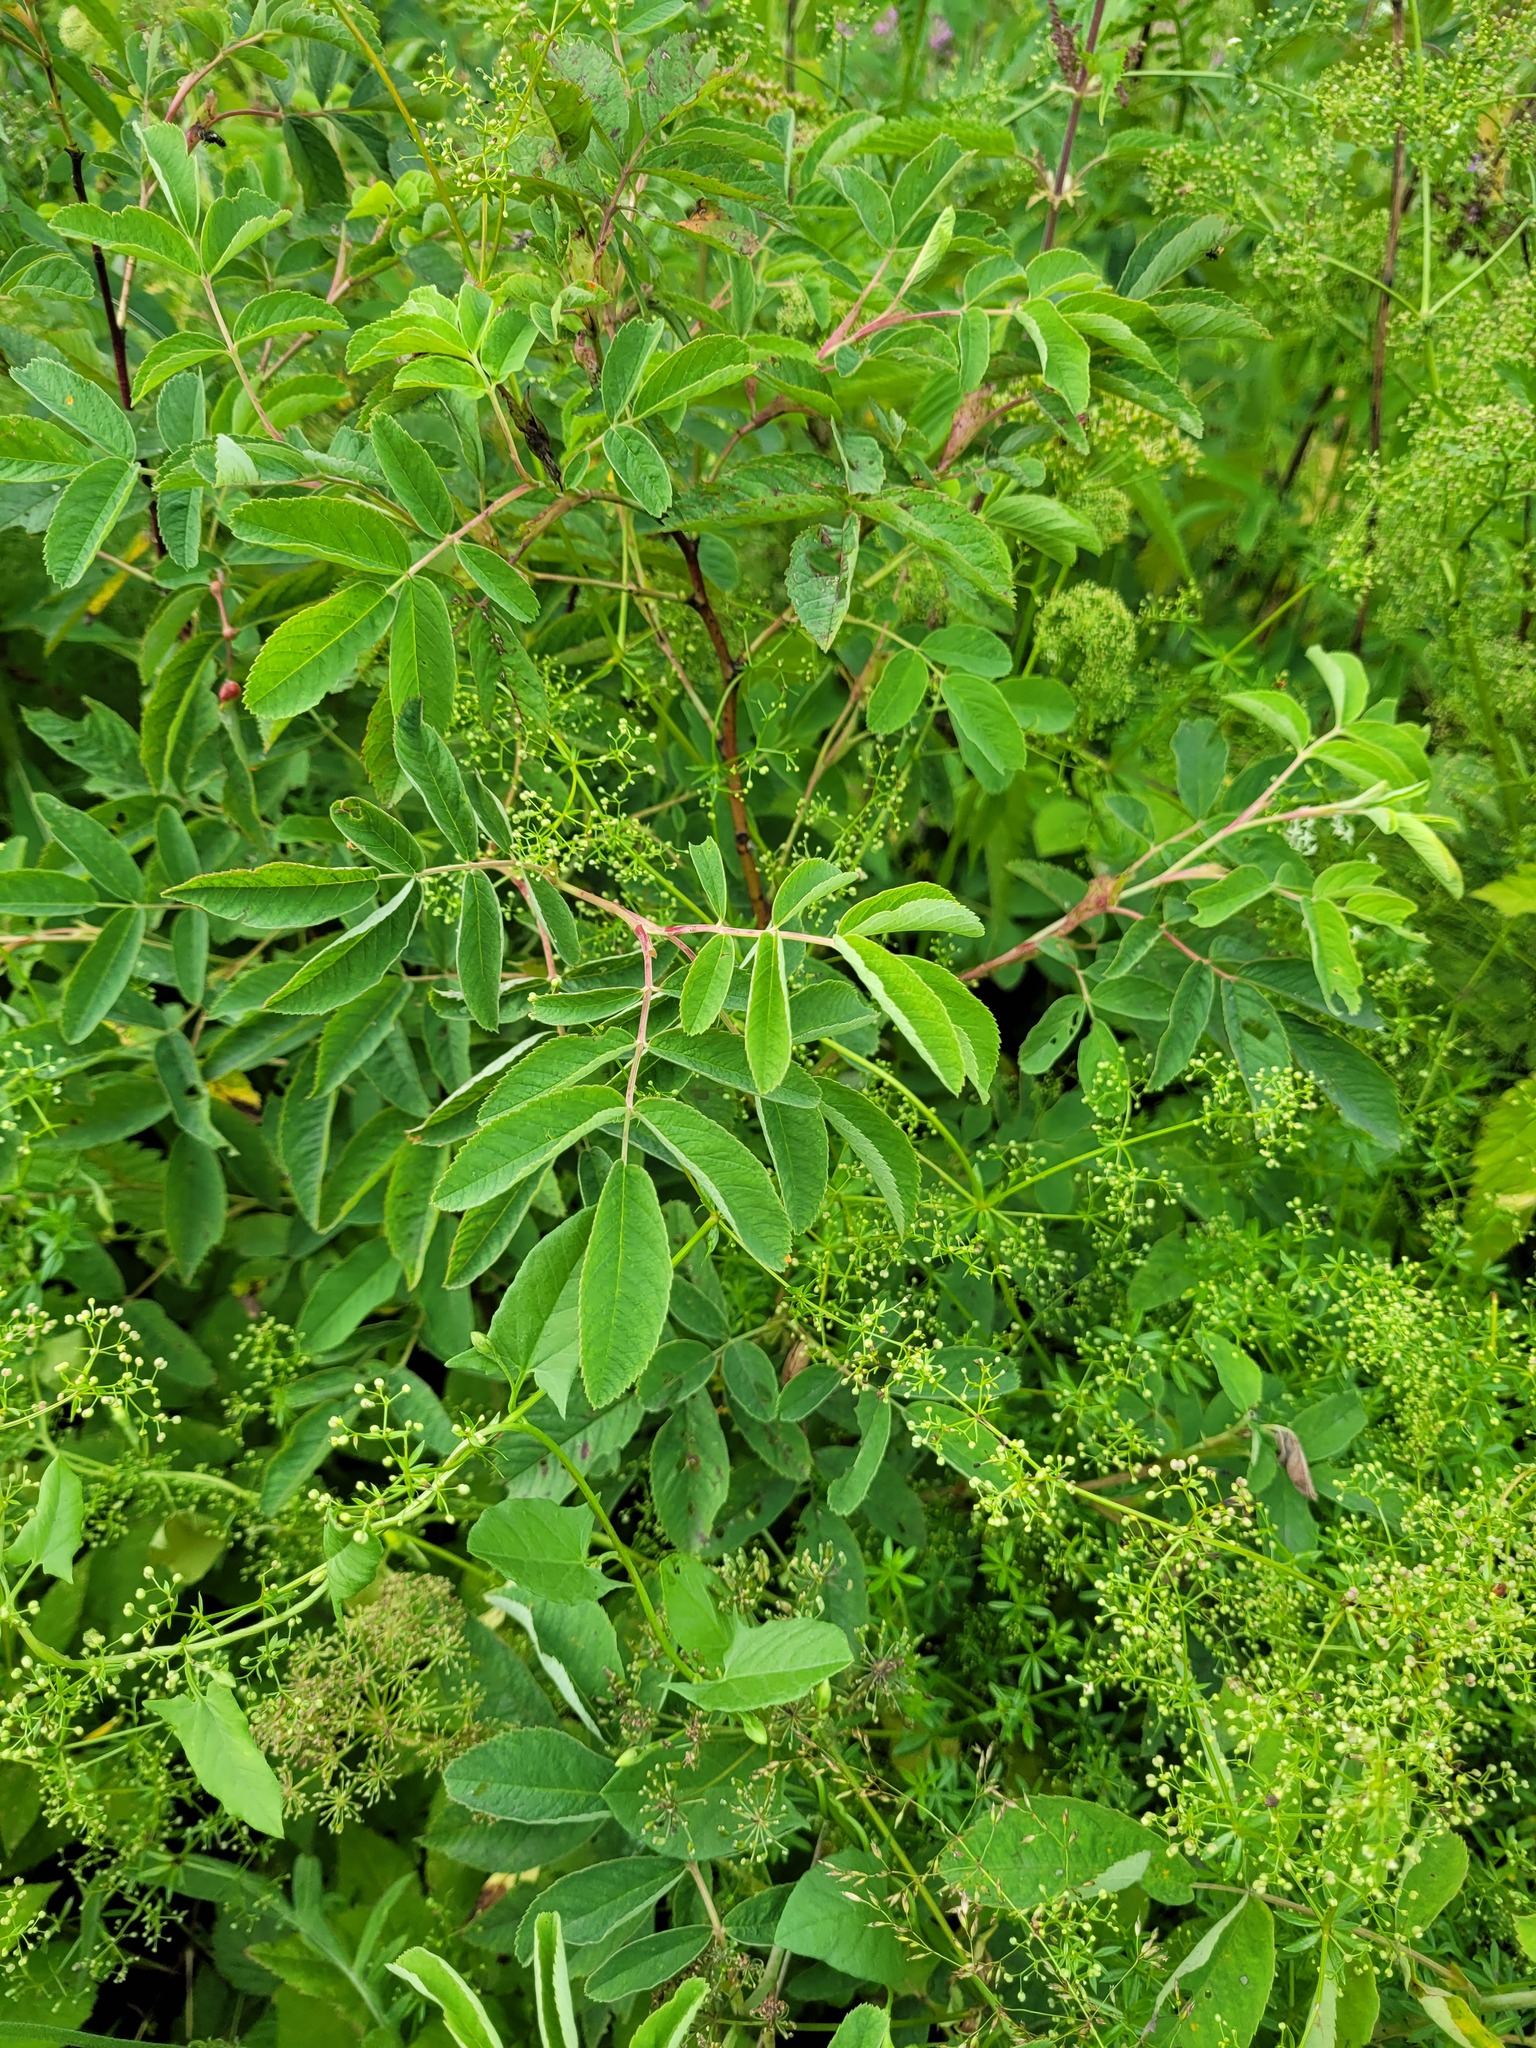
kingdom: Plantae
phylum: Tracheophyta
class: Magnoliopsida
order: Rosales
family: Rosaceae
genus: Rosa
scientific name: Rosa majalis
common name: Cinnamon rose
